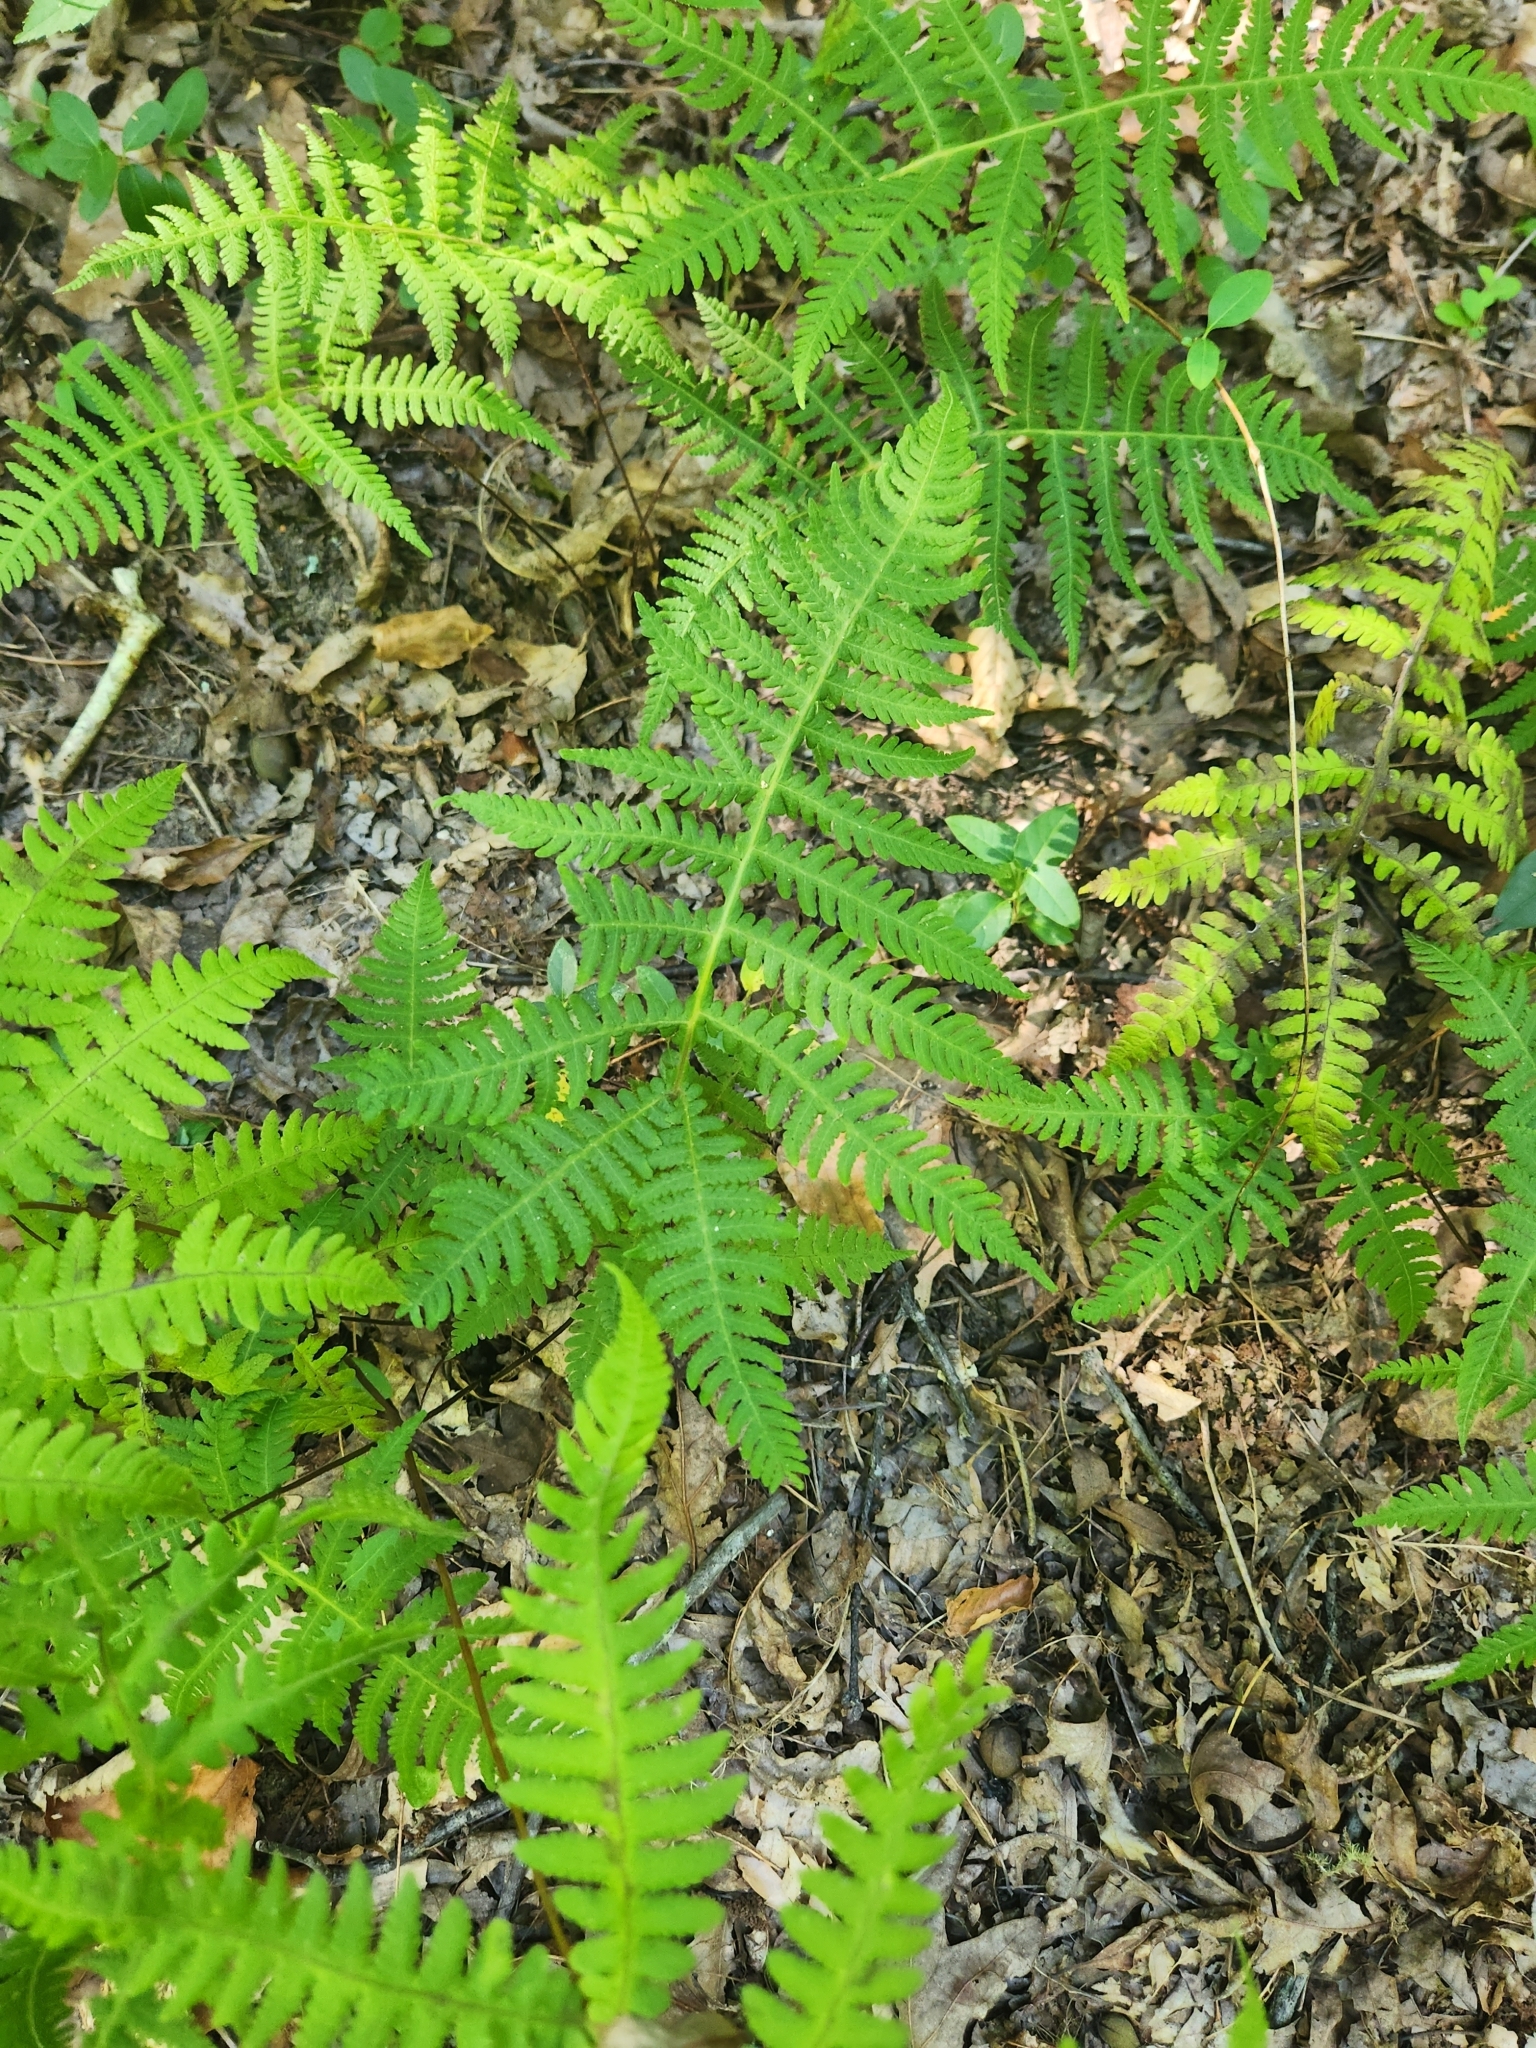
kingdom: Plantae
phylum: Tracheophyta
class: Polypodiopsida
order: Polypodiales
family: Thelypteridaceae
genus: Phegopteris
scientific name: Phegopteris hexagonoptera
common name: Broad beech fern
